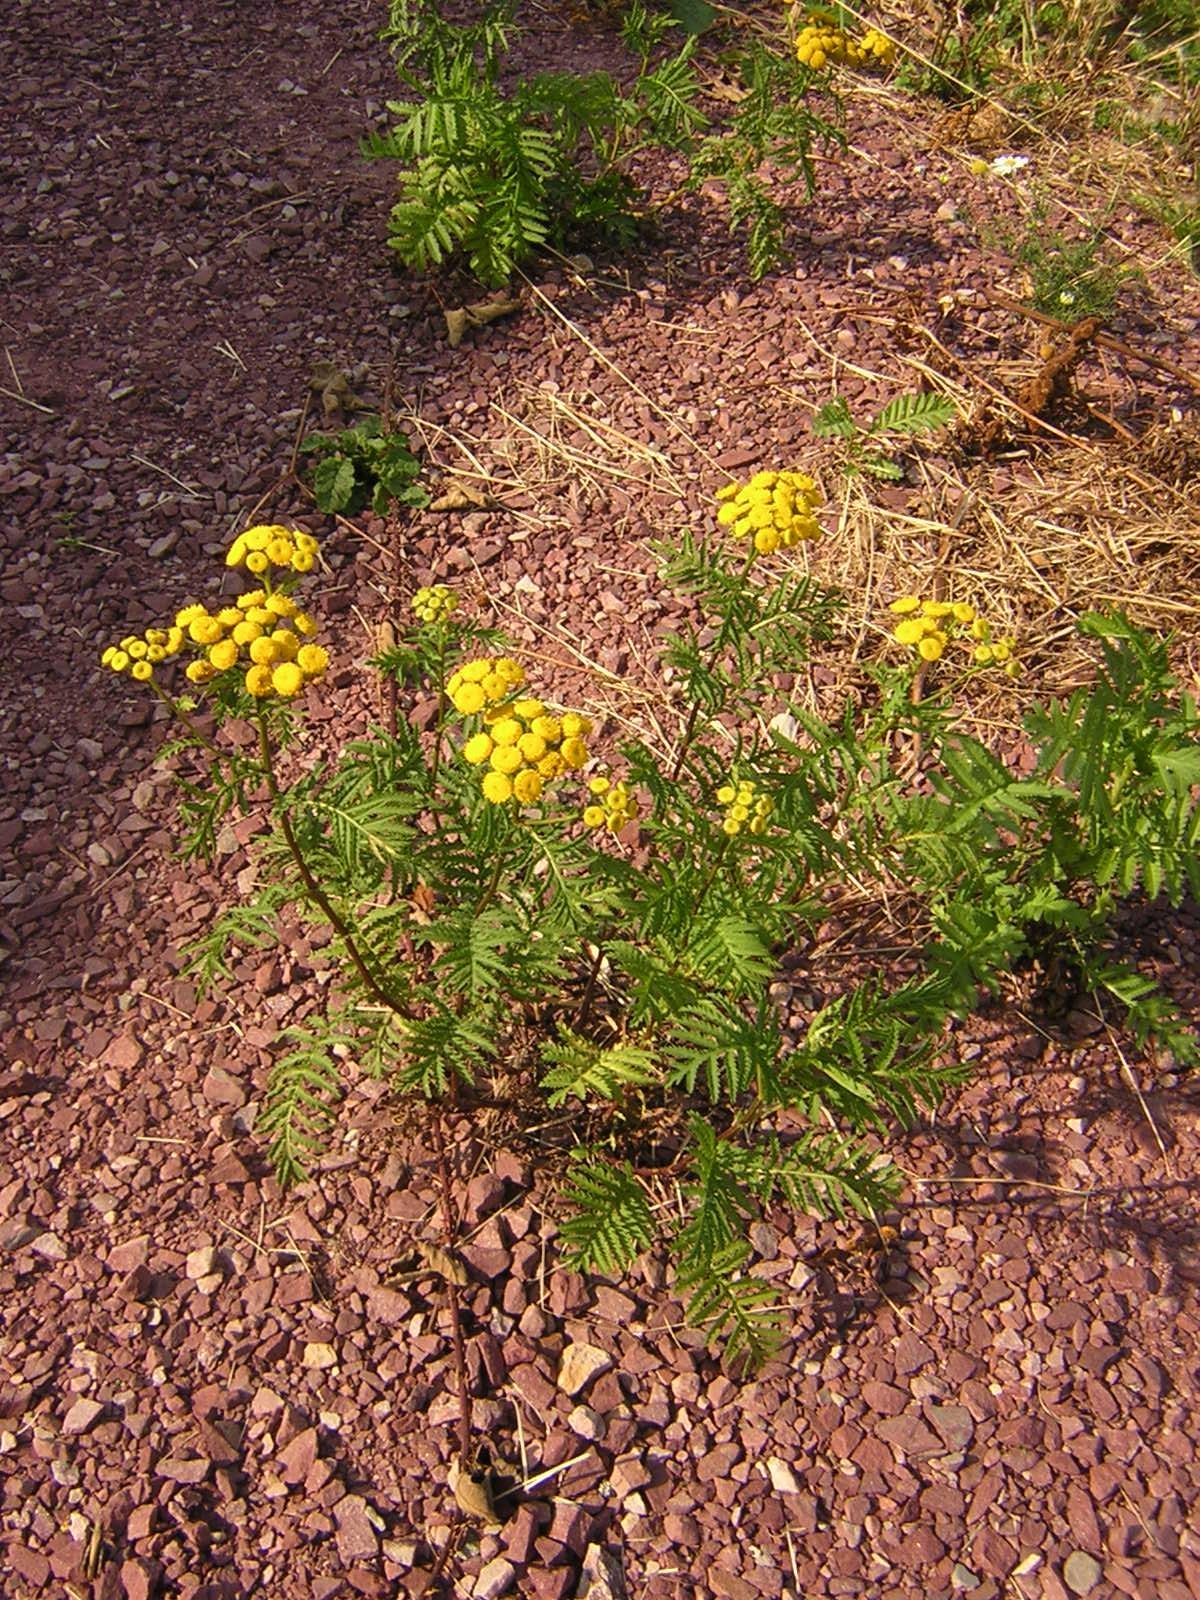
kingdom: Plantae
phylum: Tracheophyta
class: Magnoliopsida
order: Asterales
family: Asteraceae
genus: Tanacetum
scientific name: Tanacetum vulgare
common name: Common tansy
